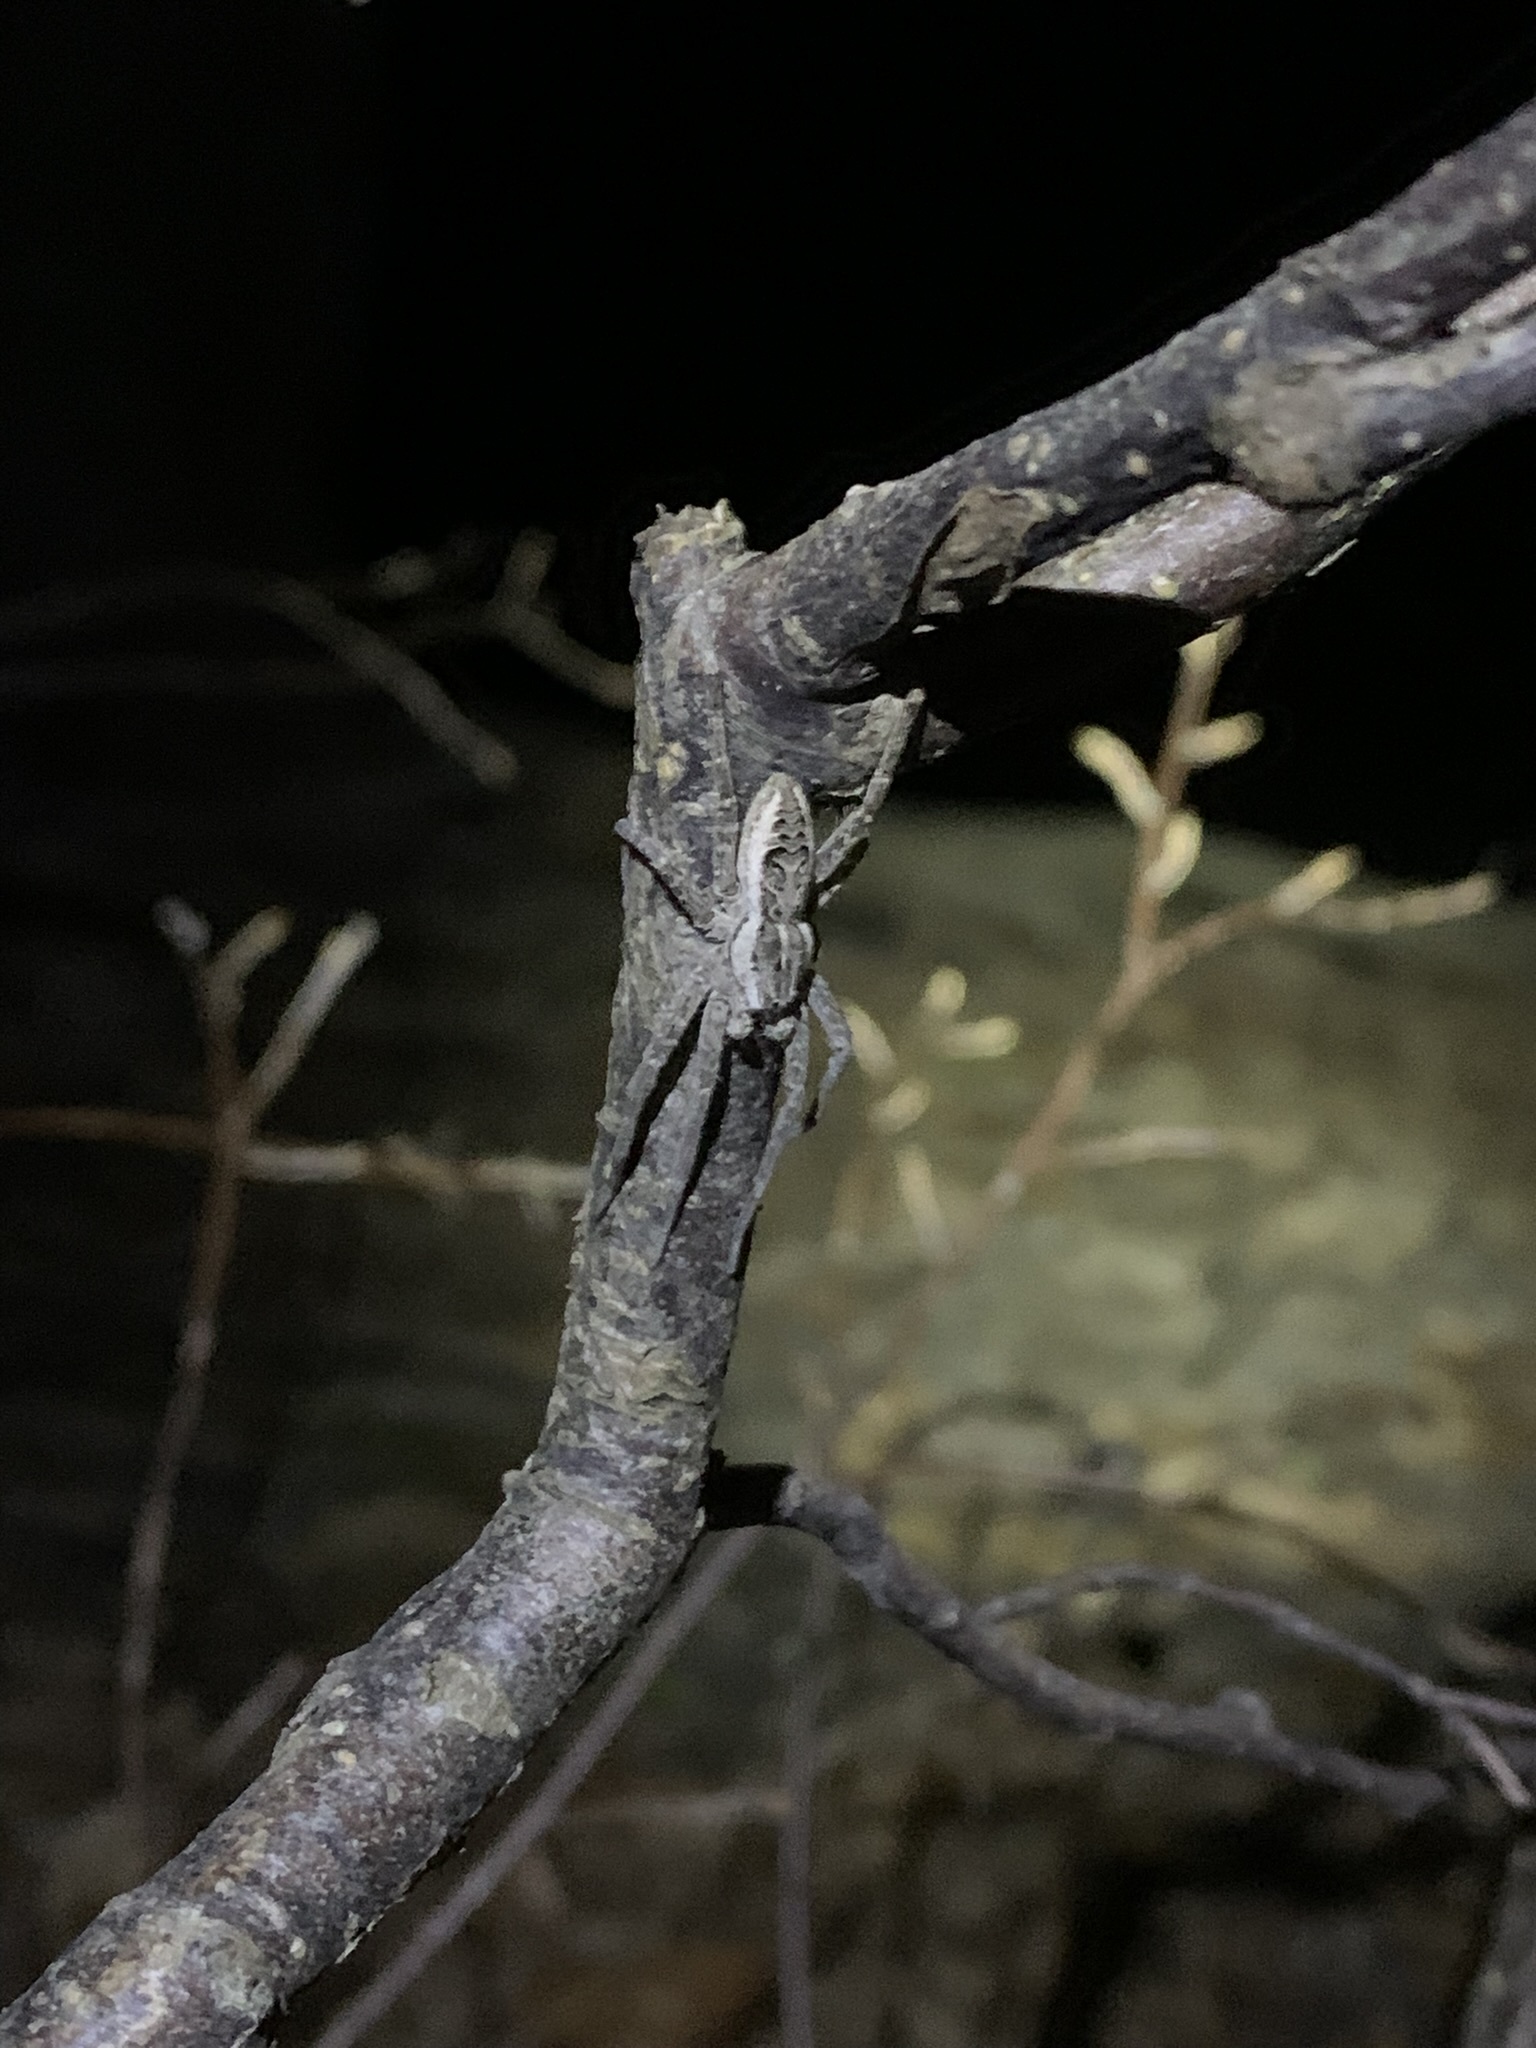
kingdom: Animalia
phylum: Arthropoda
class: Arachnida
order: Araneae
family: Pisauridae
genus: Dolomedes
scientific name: Dolomedes scriptus
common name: Striped fishing spider
